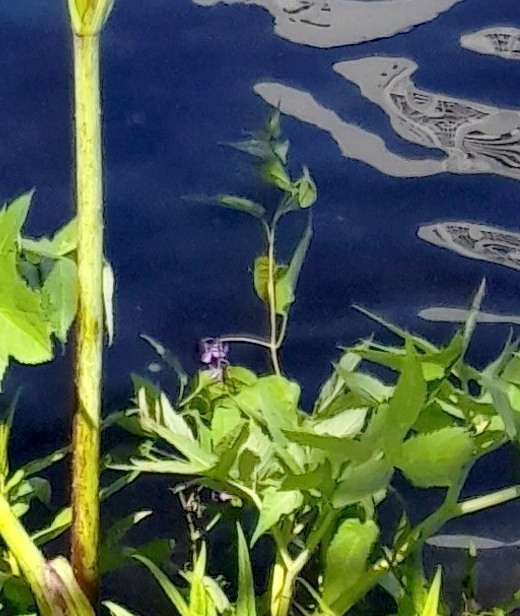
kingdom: Plantae
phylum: Tracheophyta
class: Magnoliopsida
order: Solanales
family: Solanaceae
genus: Solanum
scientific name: Solanum dulcamara
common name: Climbing nightshade
